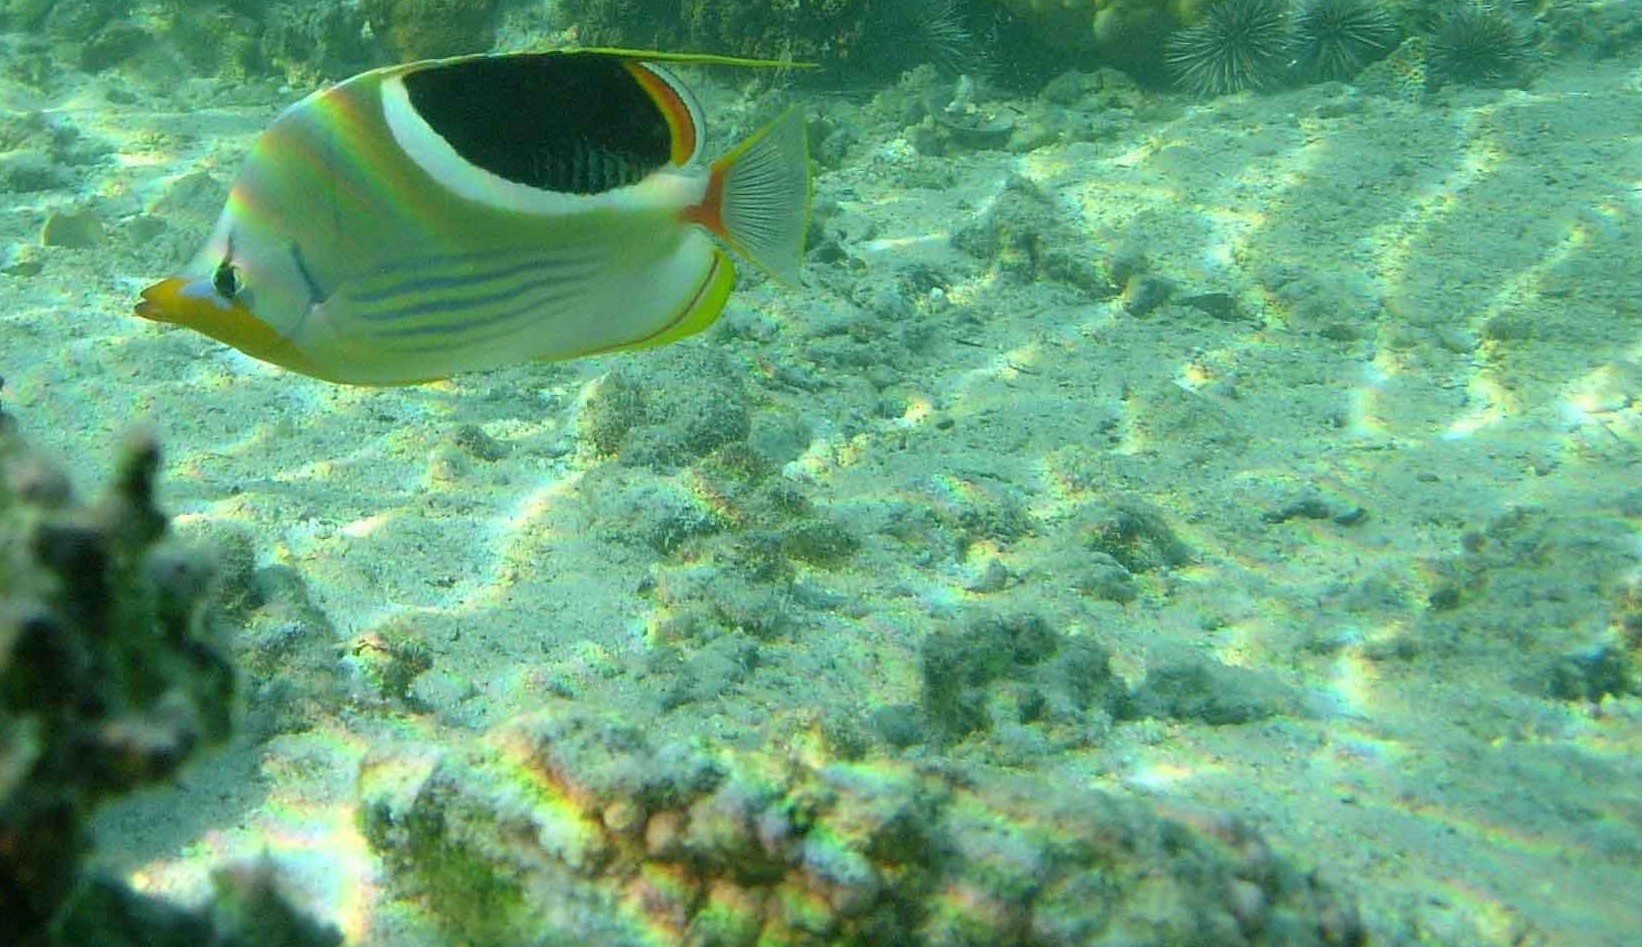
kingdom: Animalia
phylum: Chordata
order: Perciformes
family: Chaetodontidae
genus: Chaetodon
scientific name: Chaetodon ephippium
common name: Saddled butterflyfish
